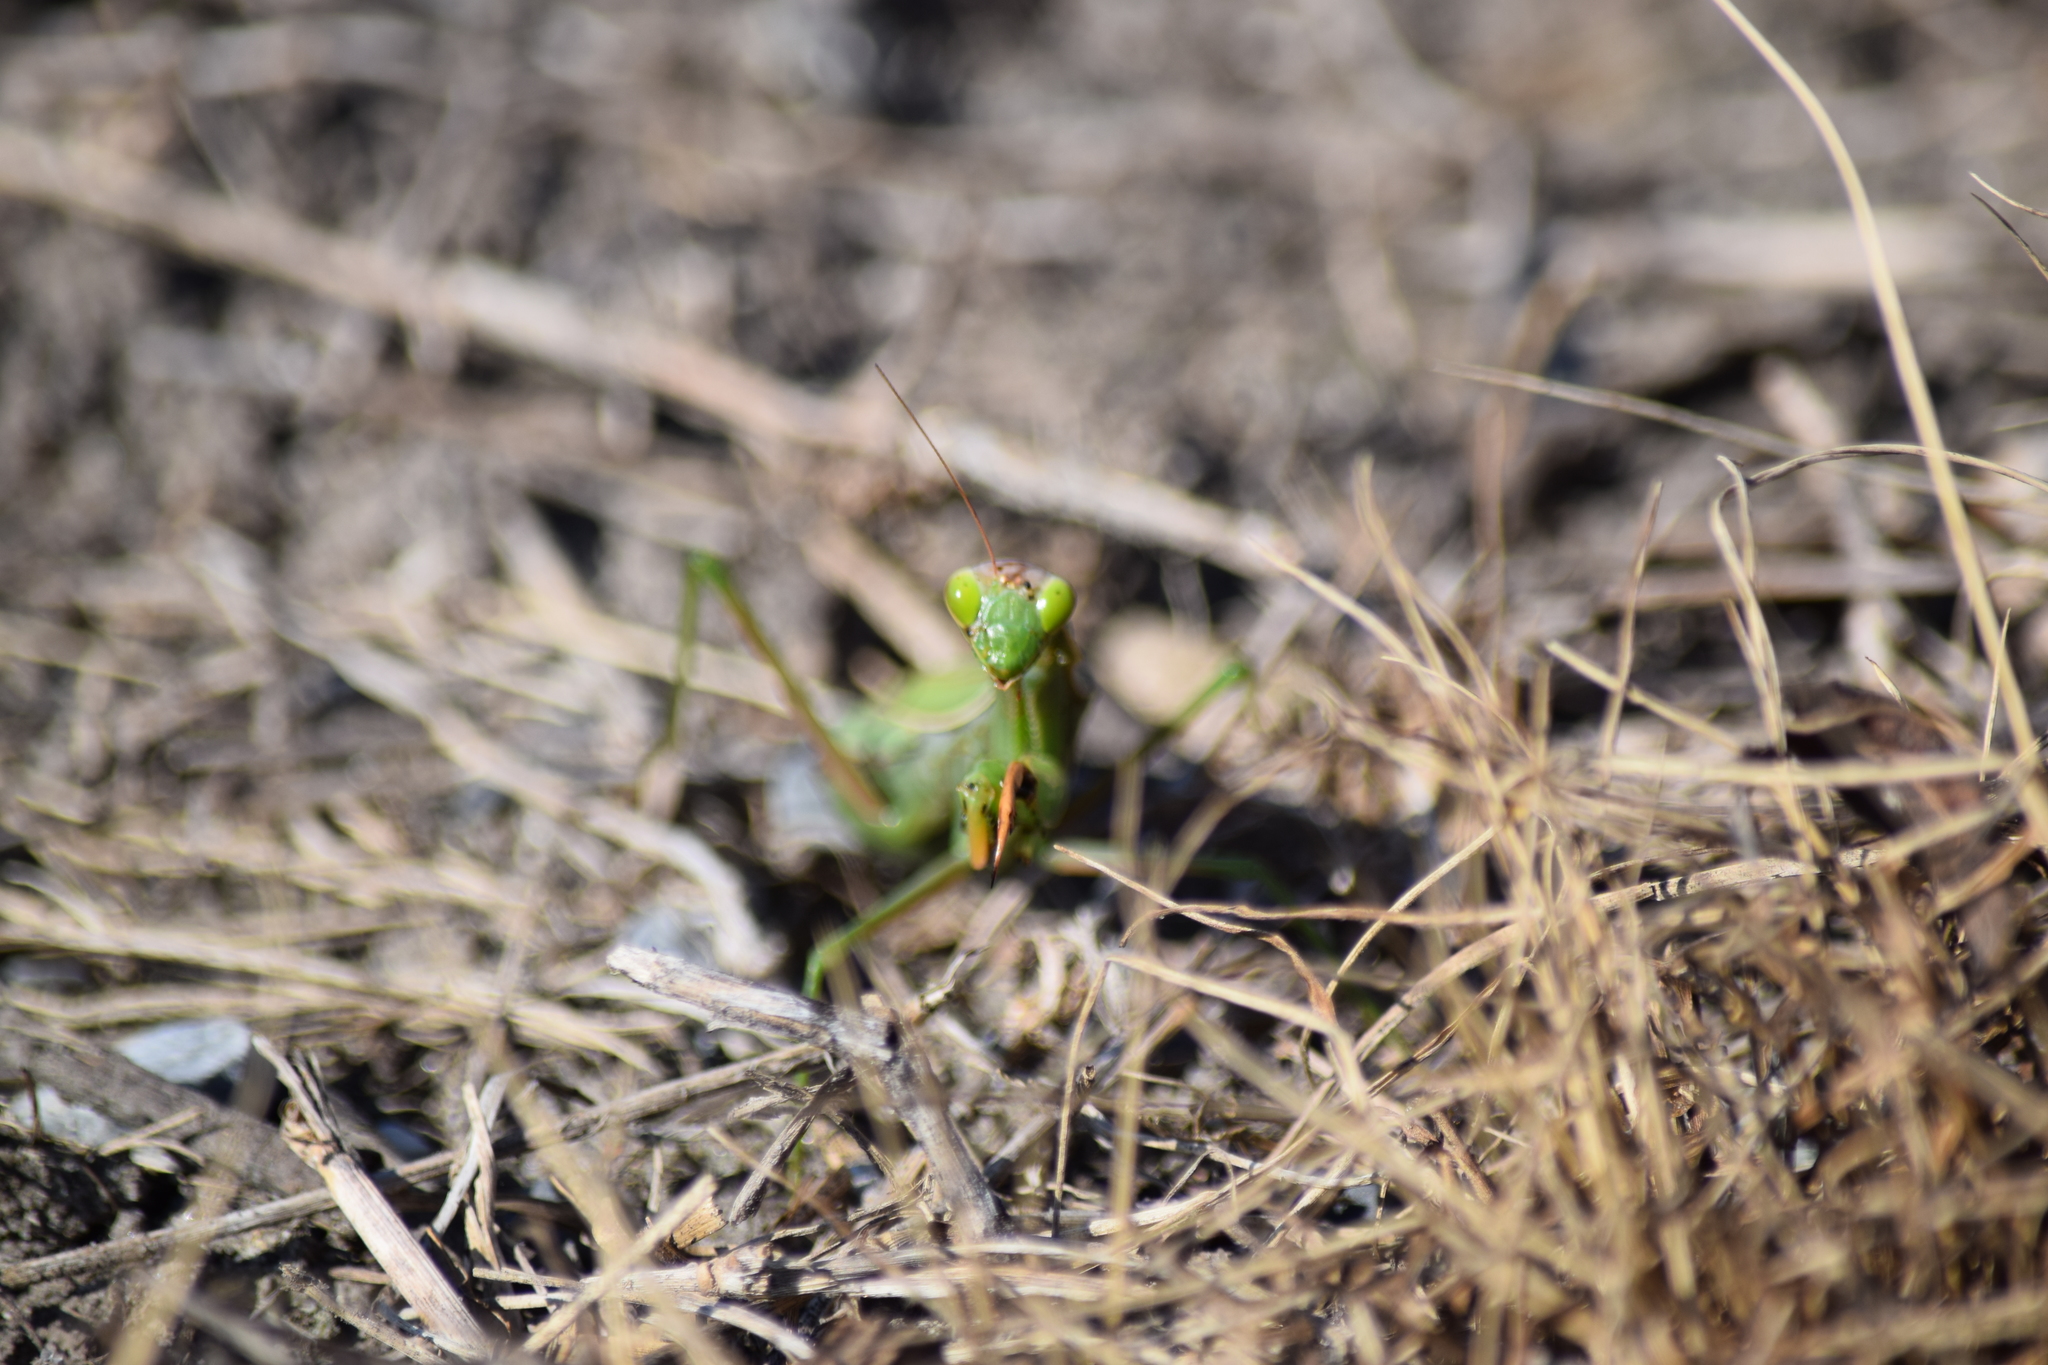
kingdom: Animalia
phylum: Arthropoda
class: Insecta
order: Mantodea
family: Mantidae
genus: Mantis
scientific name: Mantis religiosa
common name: Praying mantis
